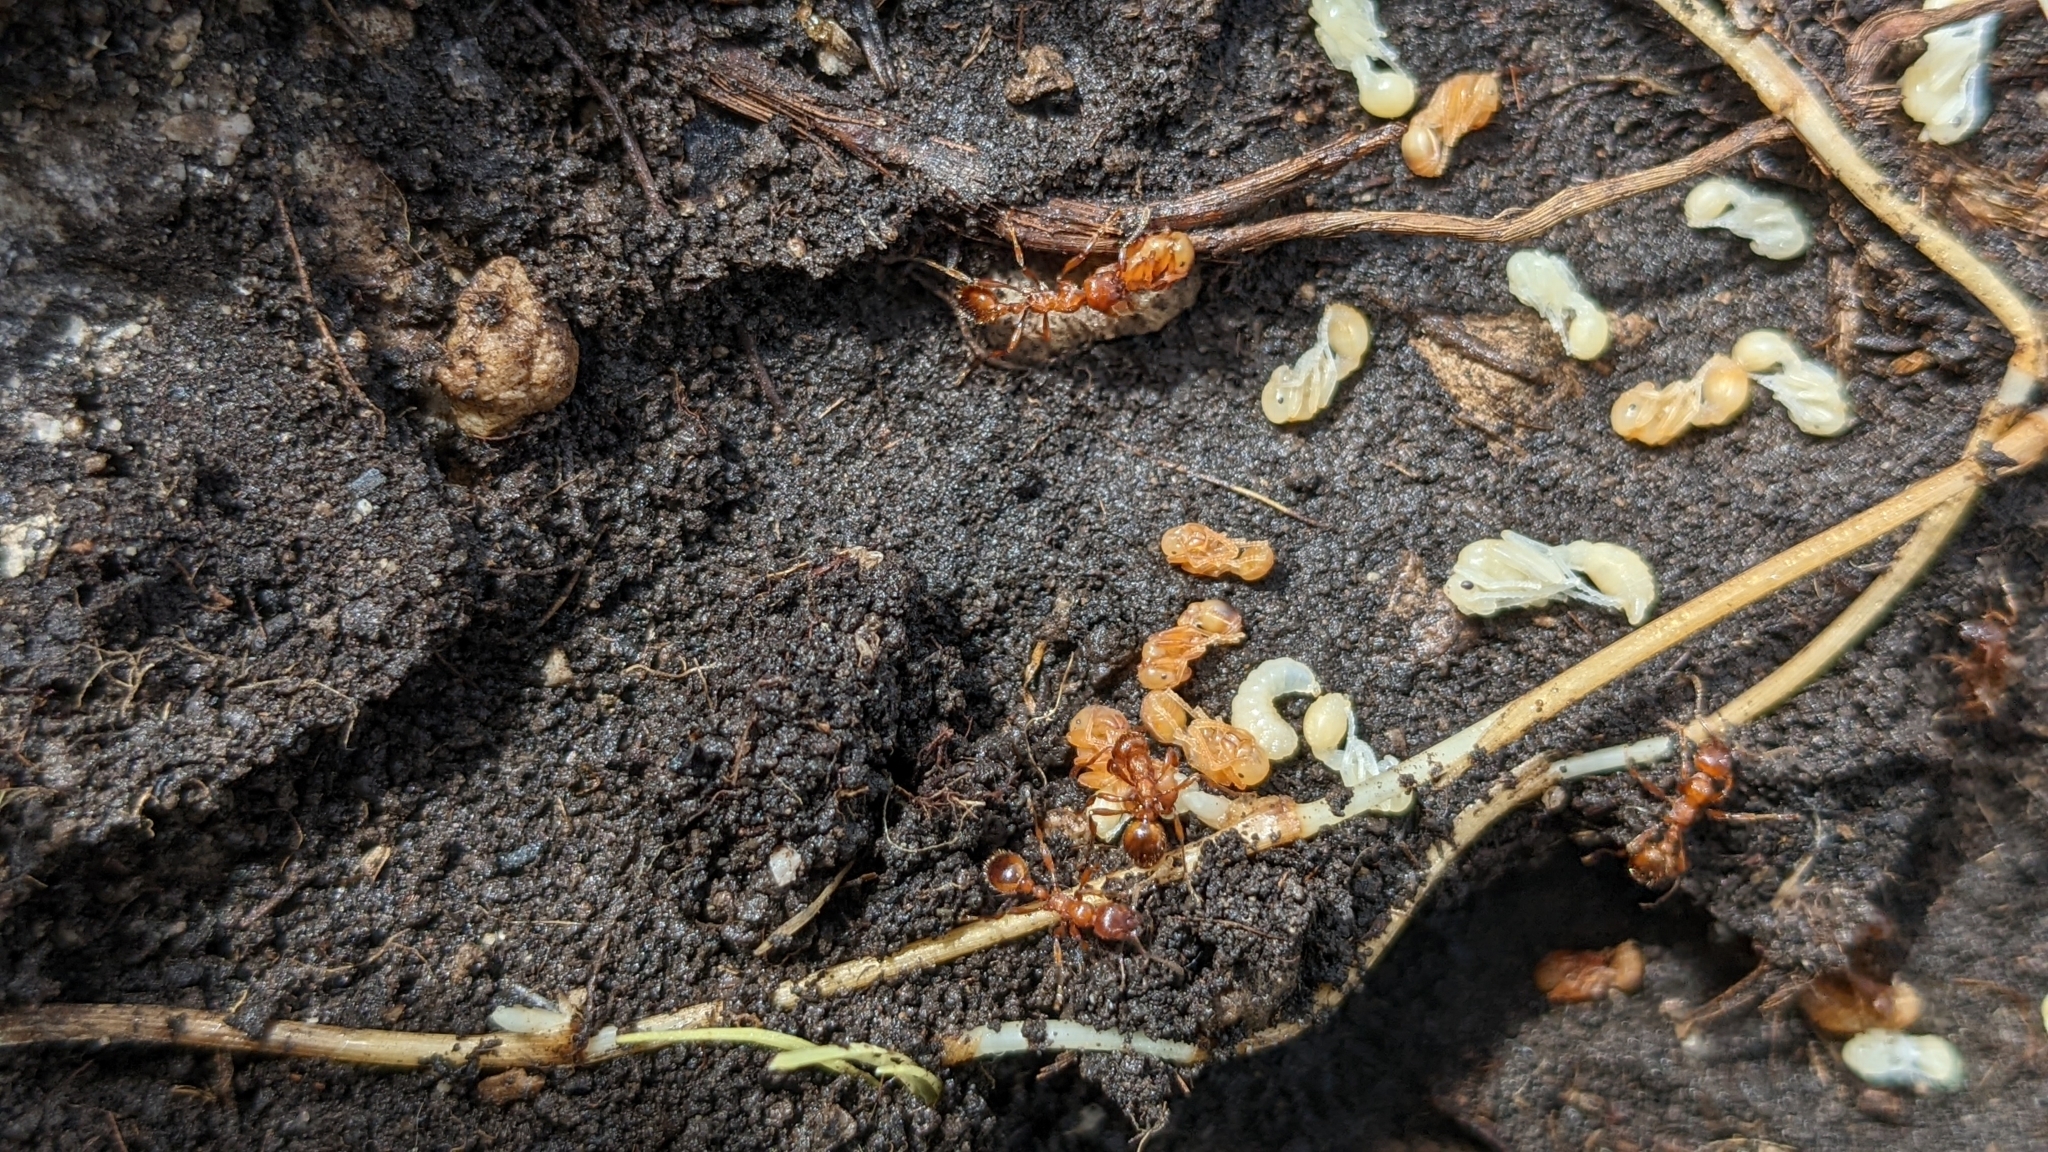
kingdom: Animalia
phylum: Arthropoda
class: Insecta
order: Hymenoptera
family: Formicidae
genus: Manica
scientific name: Manica rubida
